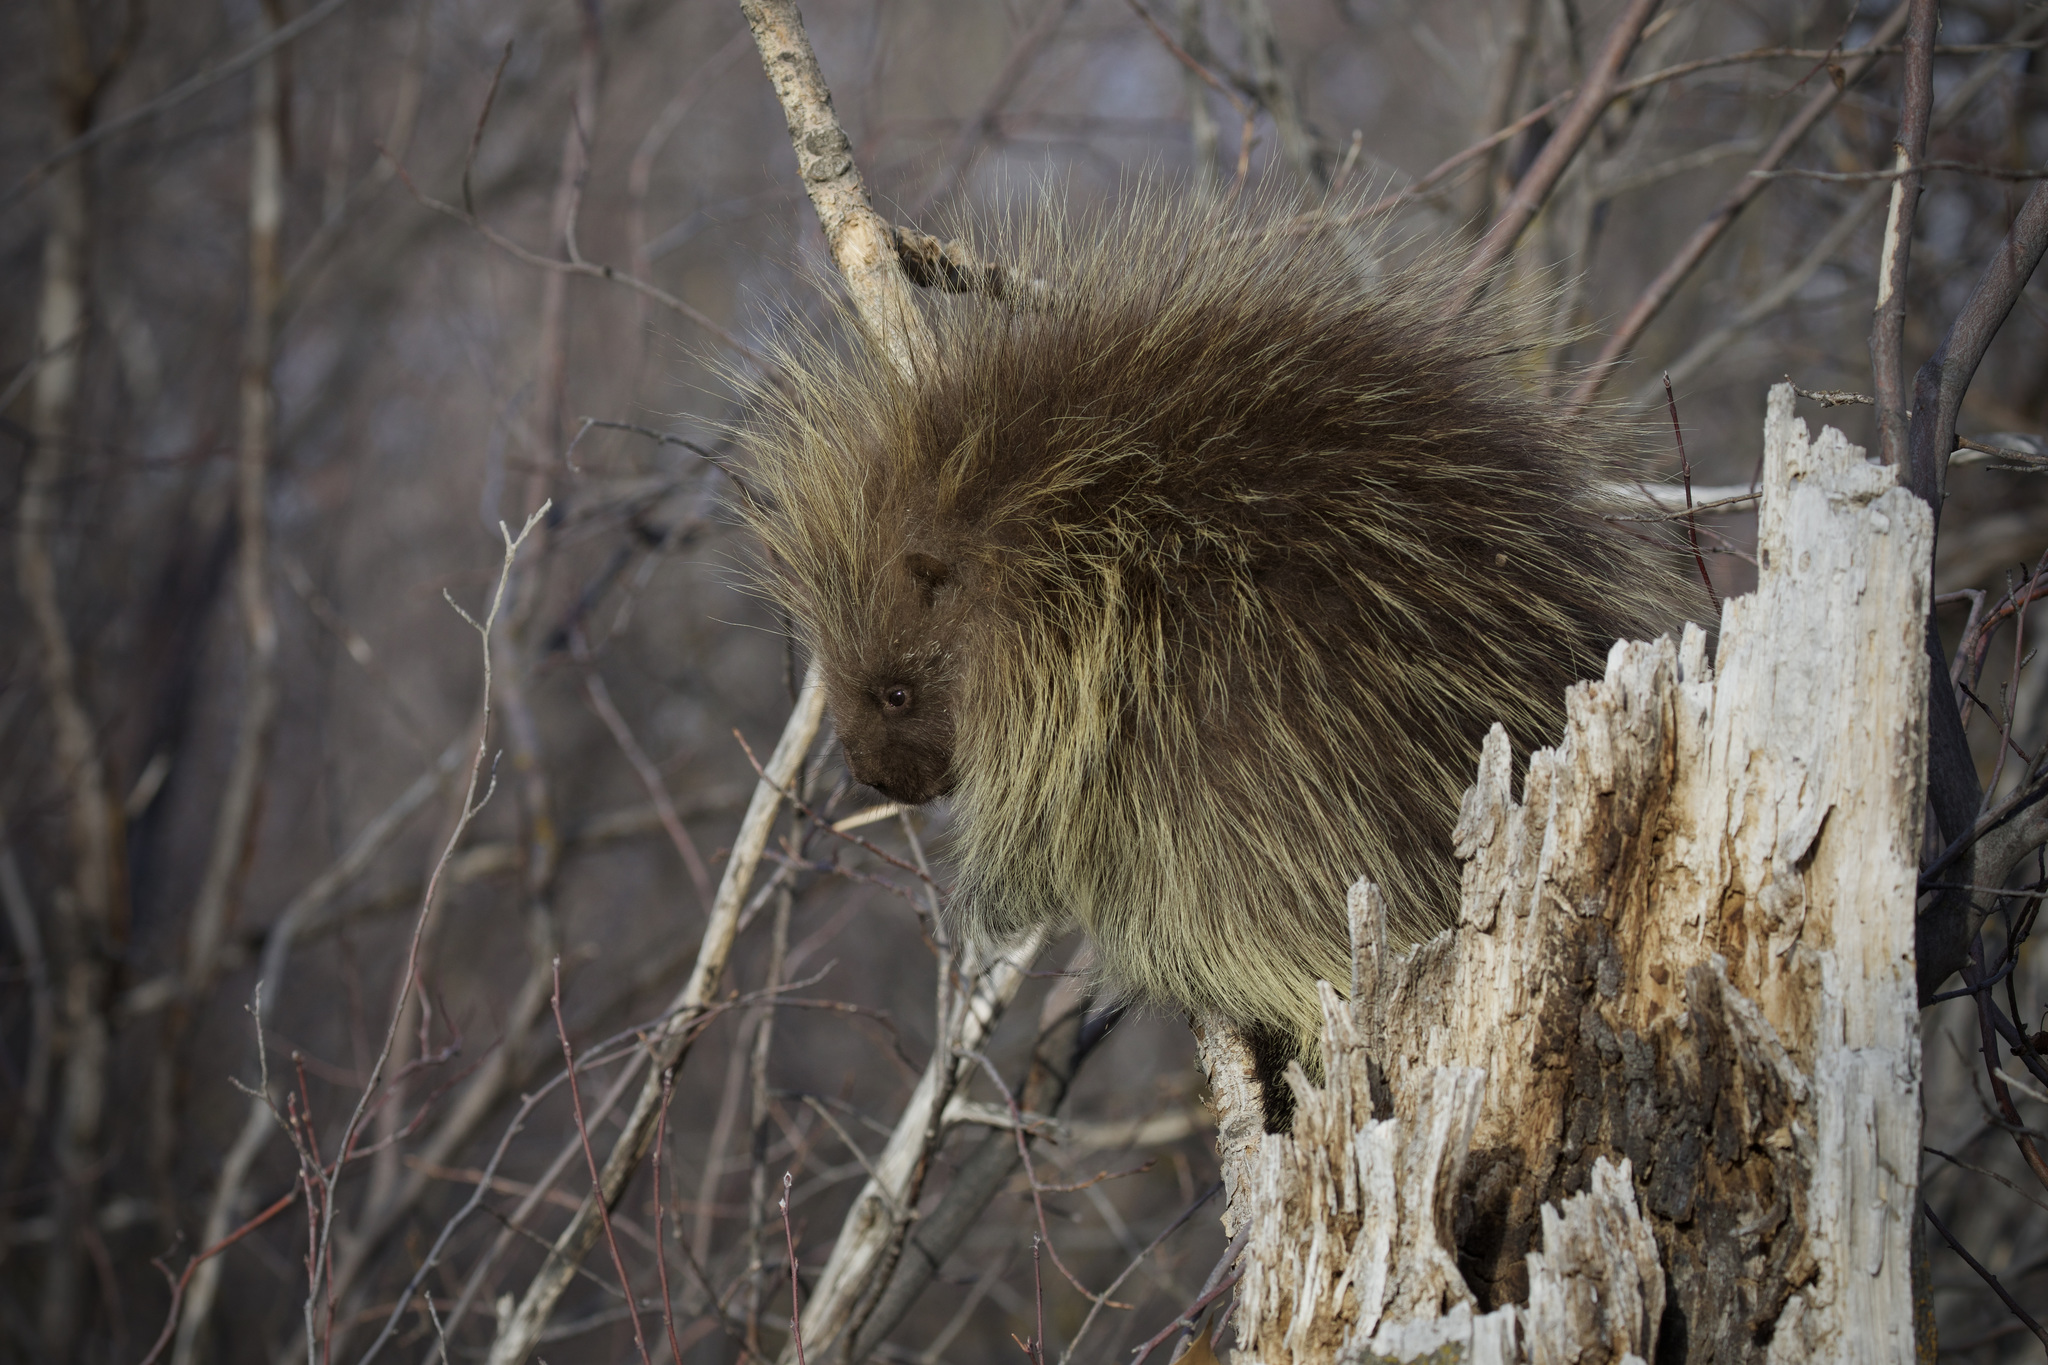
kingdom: Animalia
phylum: Chordata
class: Mammalia
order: Rodentia
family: Erethizontidae
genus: Erethizon
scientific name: Erethizon dorsatus
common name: North american porcupine
